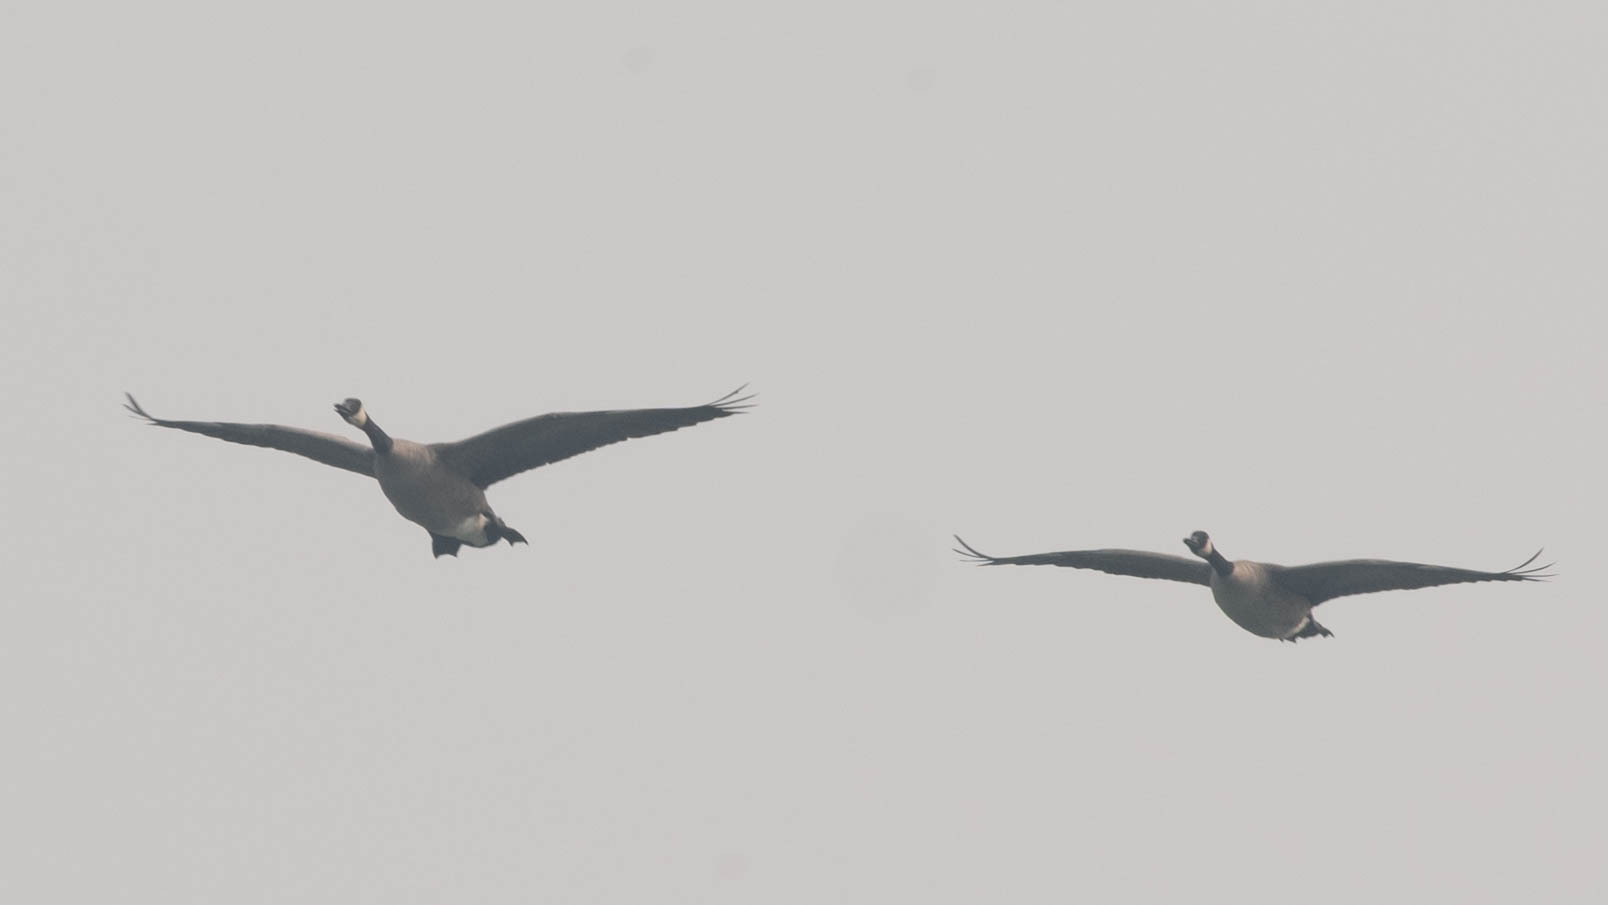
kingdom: Animalia
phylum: Chordata
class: Aves
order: Anseriformes
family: Anatidae
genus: Branta
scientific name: Branta canadensis
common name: Canada goose
